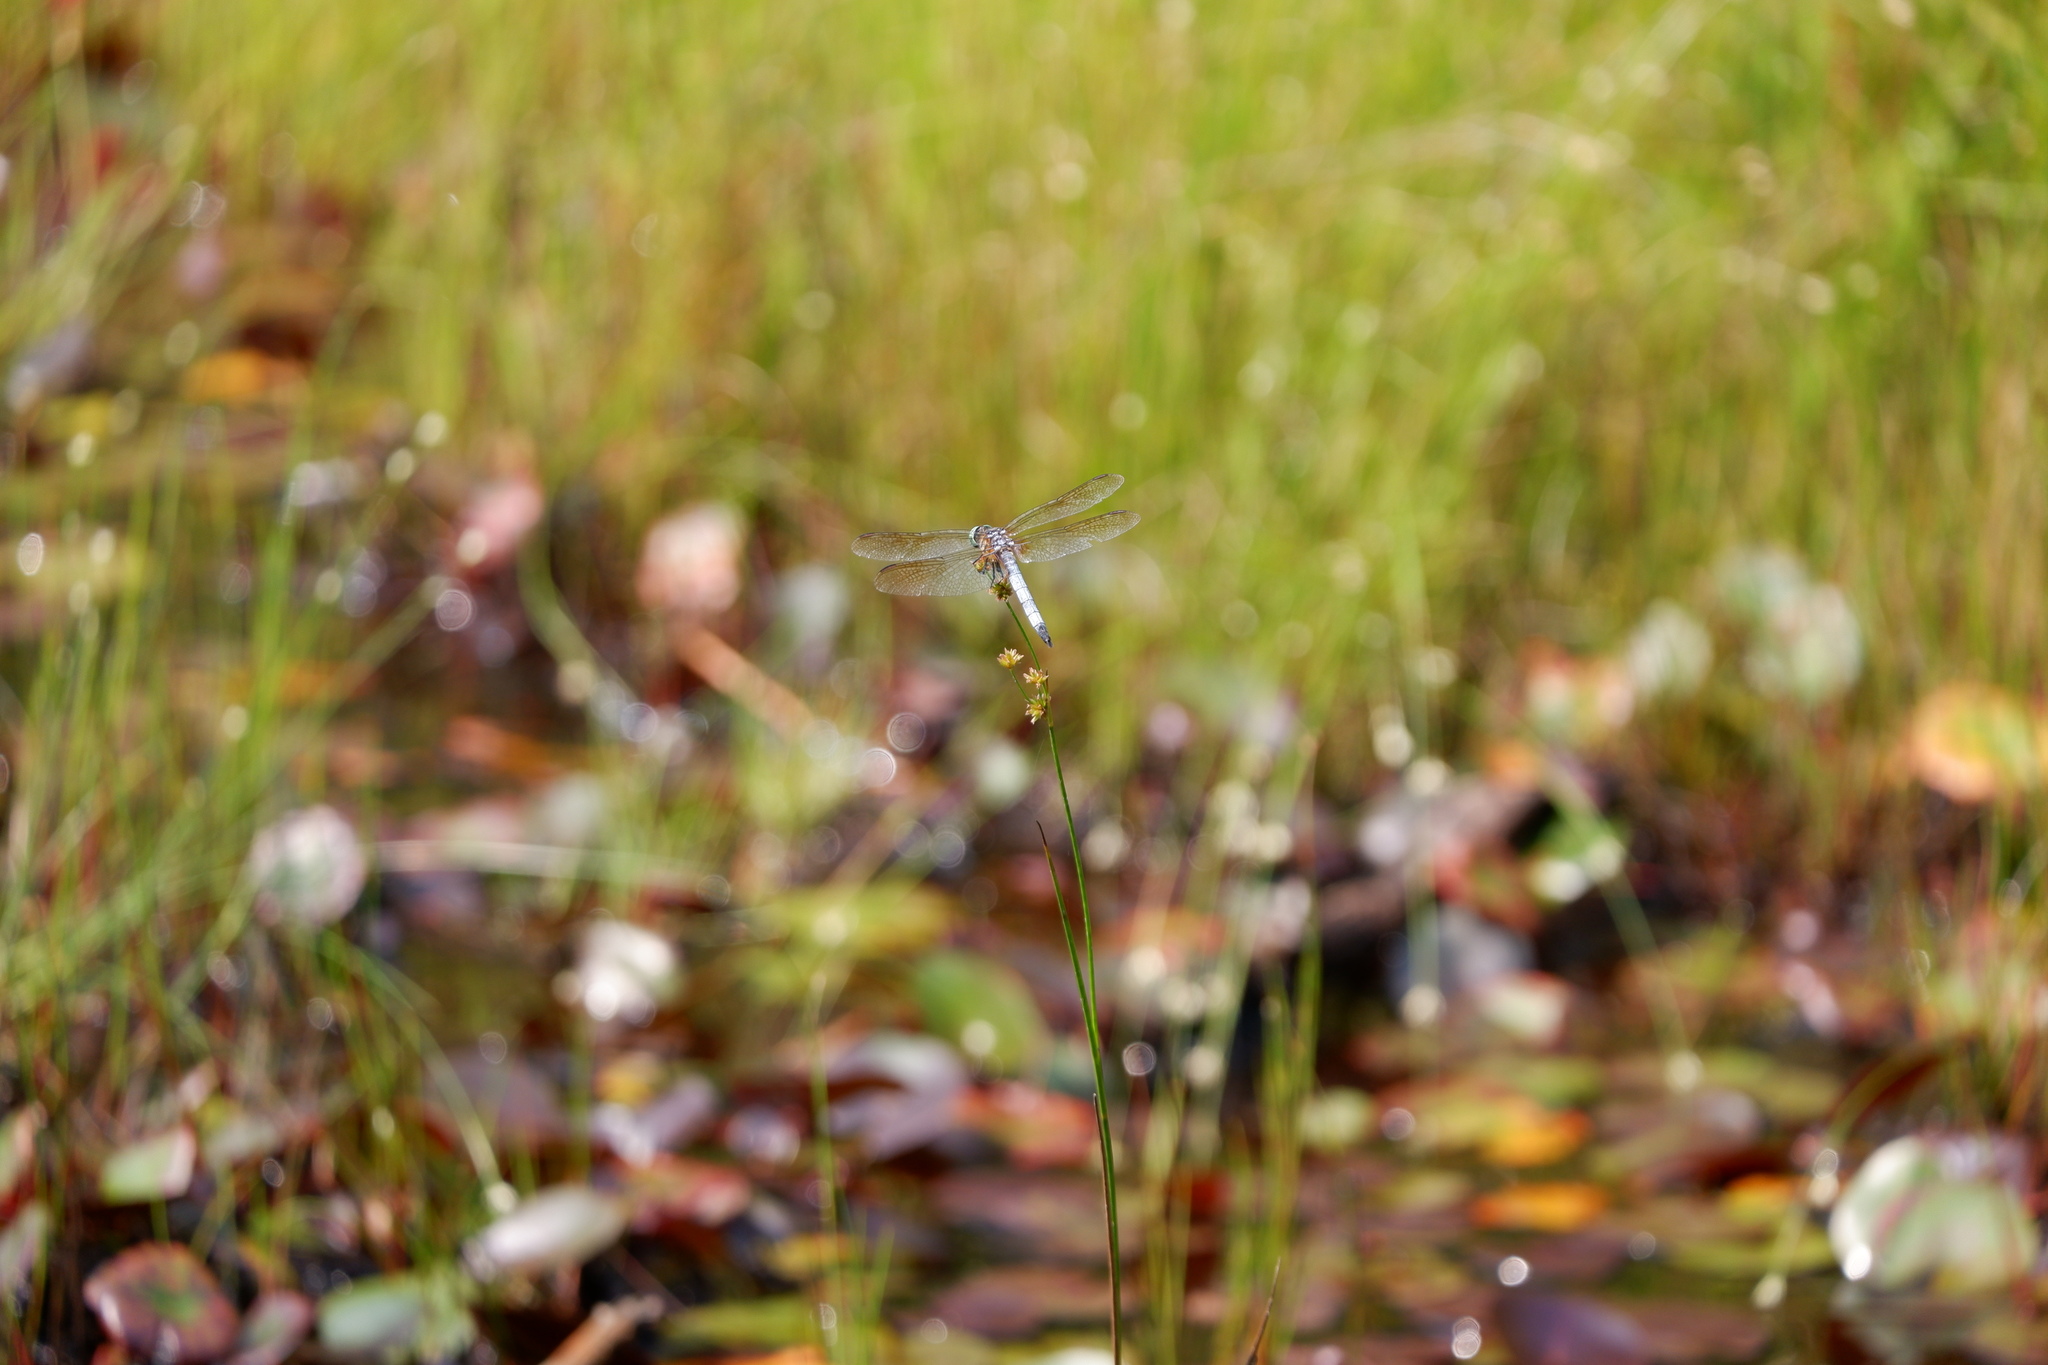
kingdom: Animalia
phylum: Arthropoda
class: Insecta
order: Odonata
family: Libellulidae
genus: Pachydiplax
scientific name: Pachydiplax longipennis
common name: Blue dasher
